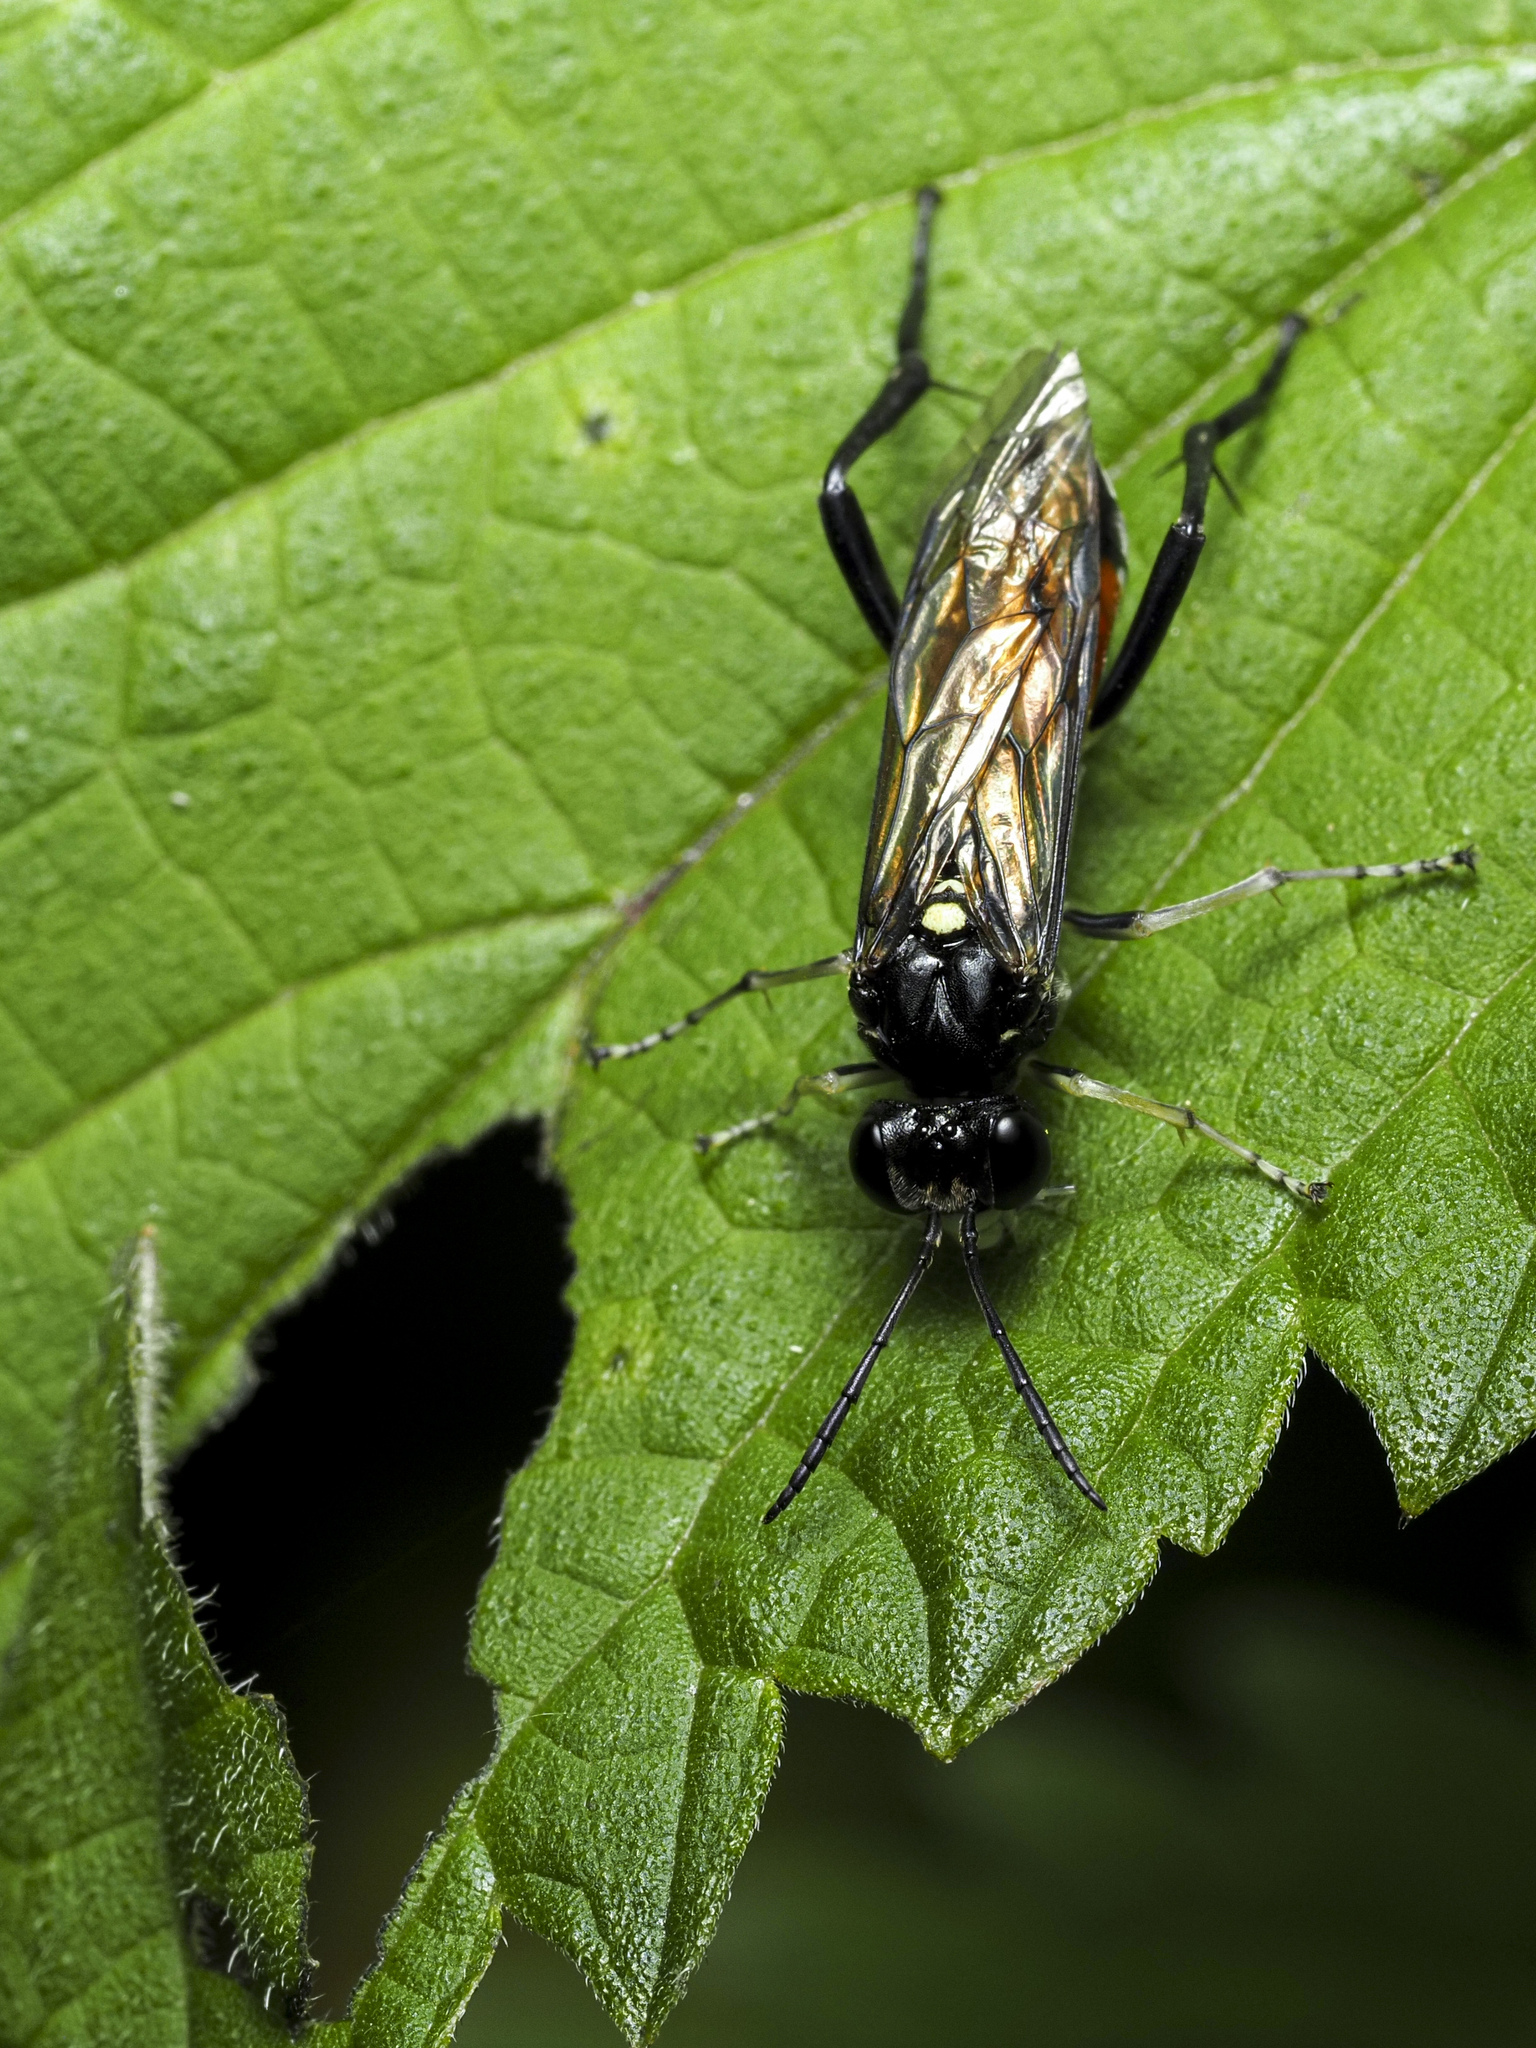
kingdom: Animalia
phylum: Arthropoda
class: Insecta
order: Hymenoptera
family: Tenthredinidae
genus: Macrophya
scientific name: Macrophya militaris
